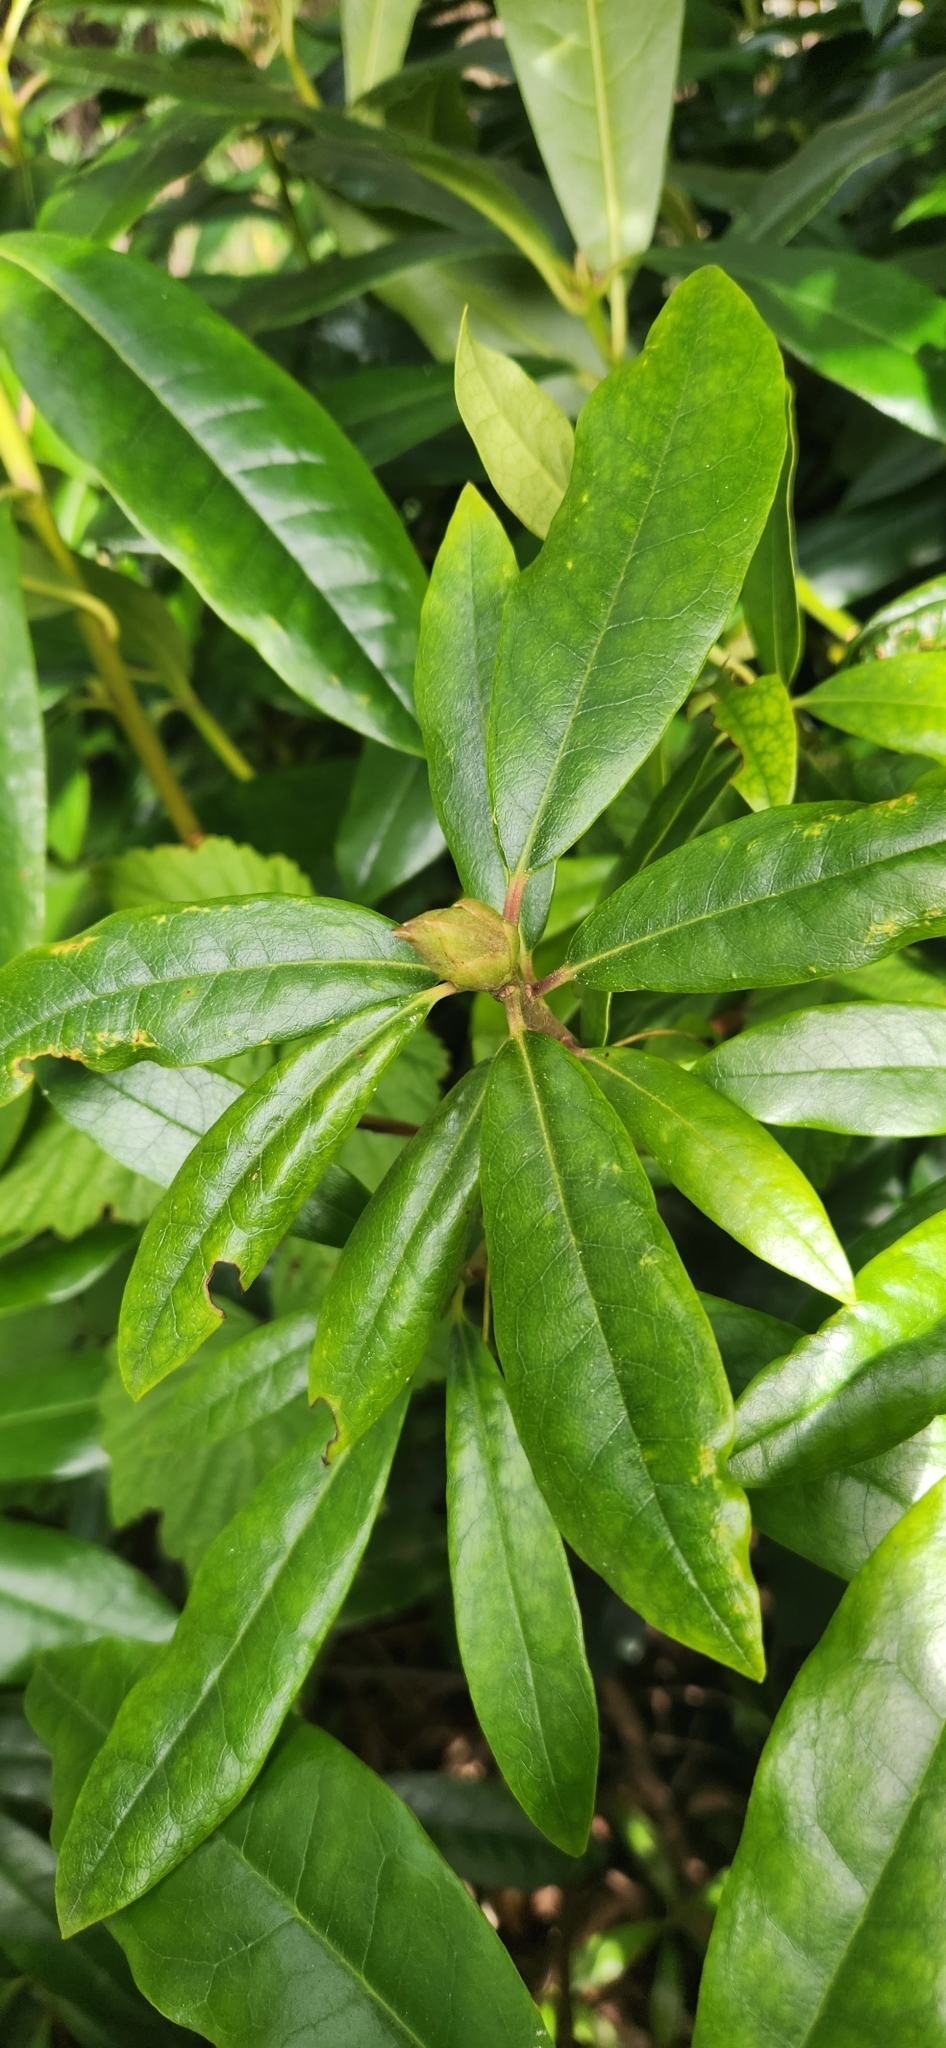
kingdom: Plantae
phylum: Tracheophyta
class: Magnoliopsida
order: Ericales
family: Ericaceae
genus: Rhododendron
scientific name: Rhododendron macrophyllum
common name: California rose bay
